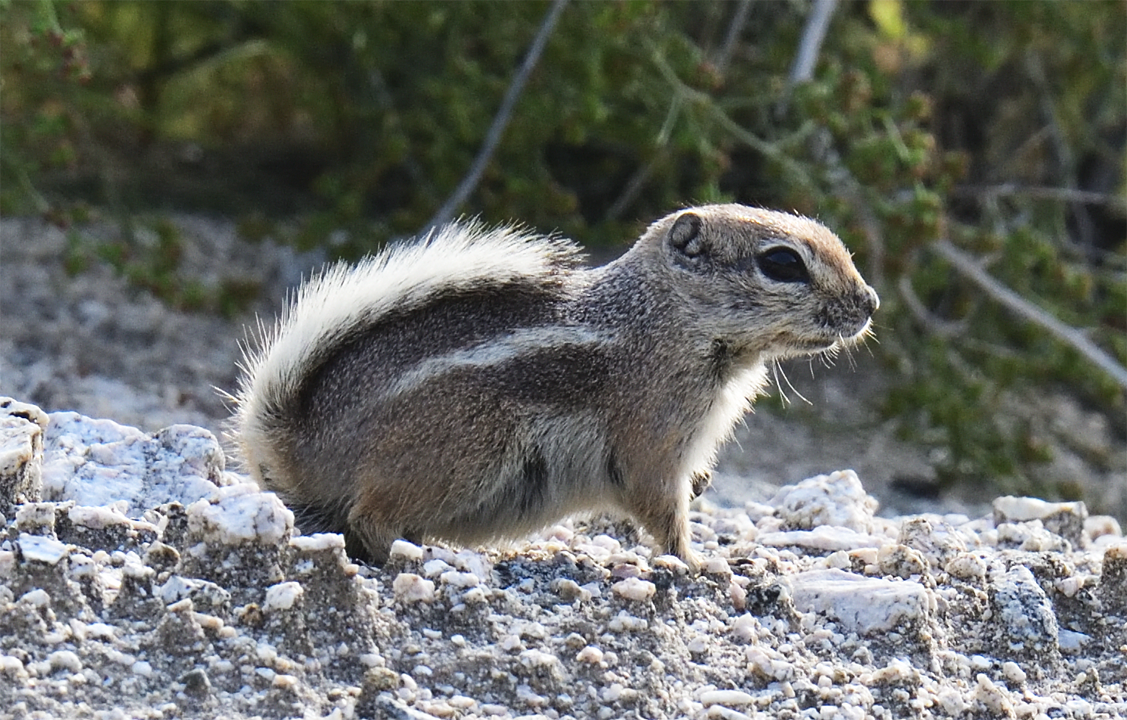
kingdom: Animalia
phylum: Chordata
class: Mammalia
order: Rodentia
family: Sciuridae
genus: Ammospermophilus
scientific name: Ammospermophilus leucurus
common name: White-tailed antelope squirrel
